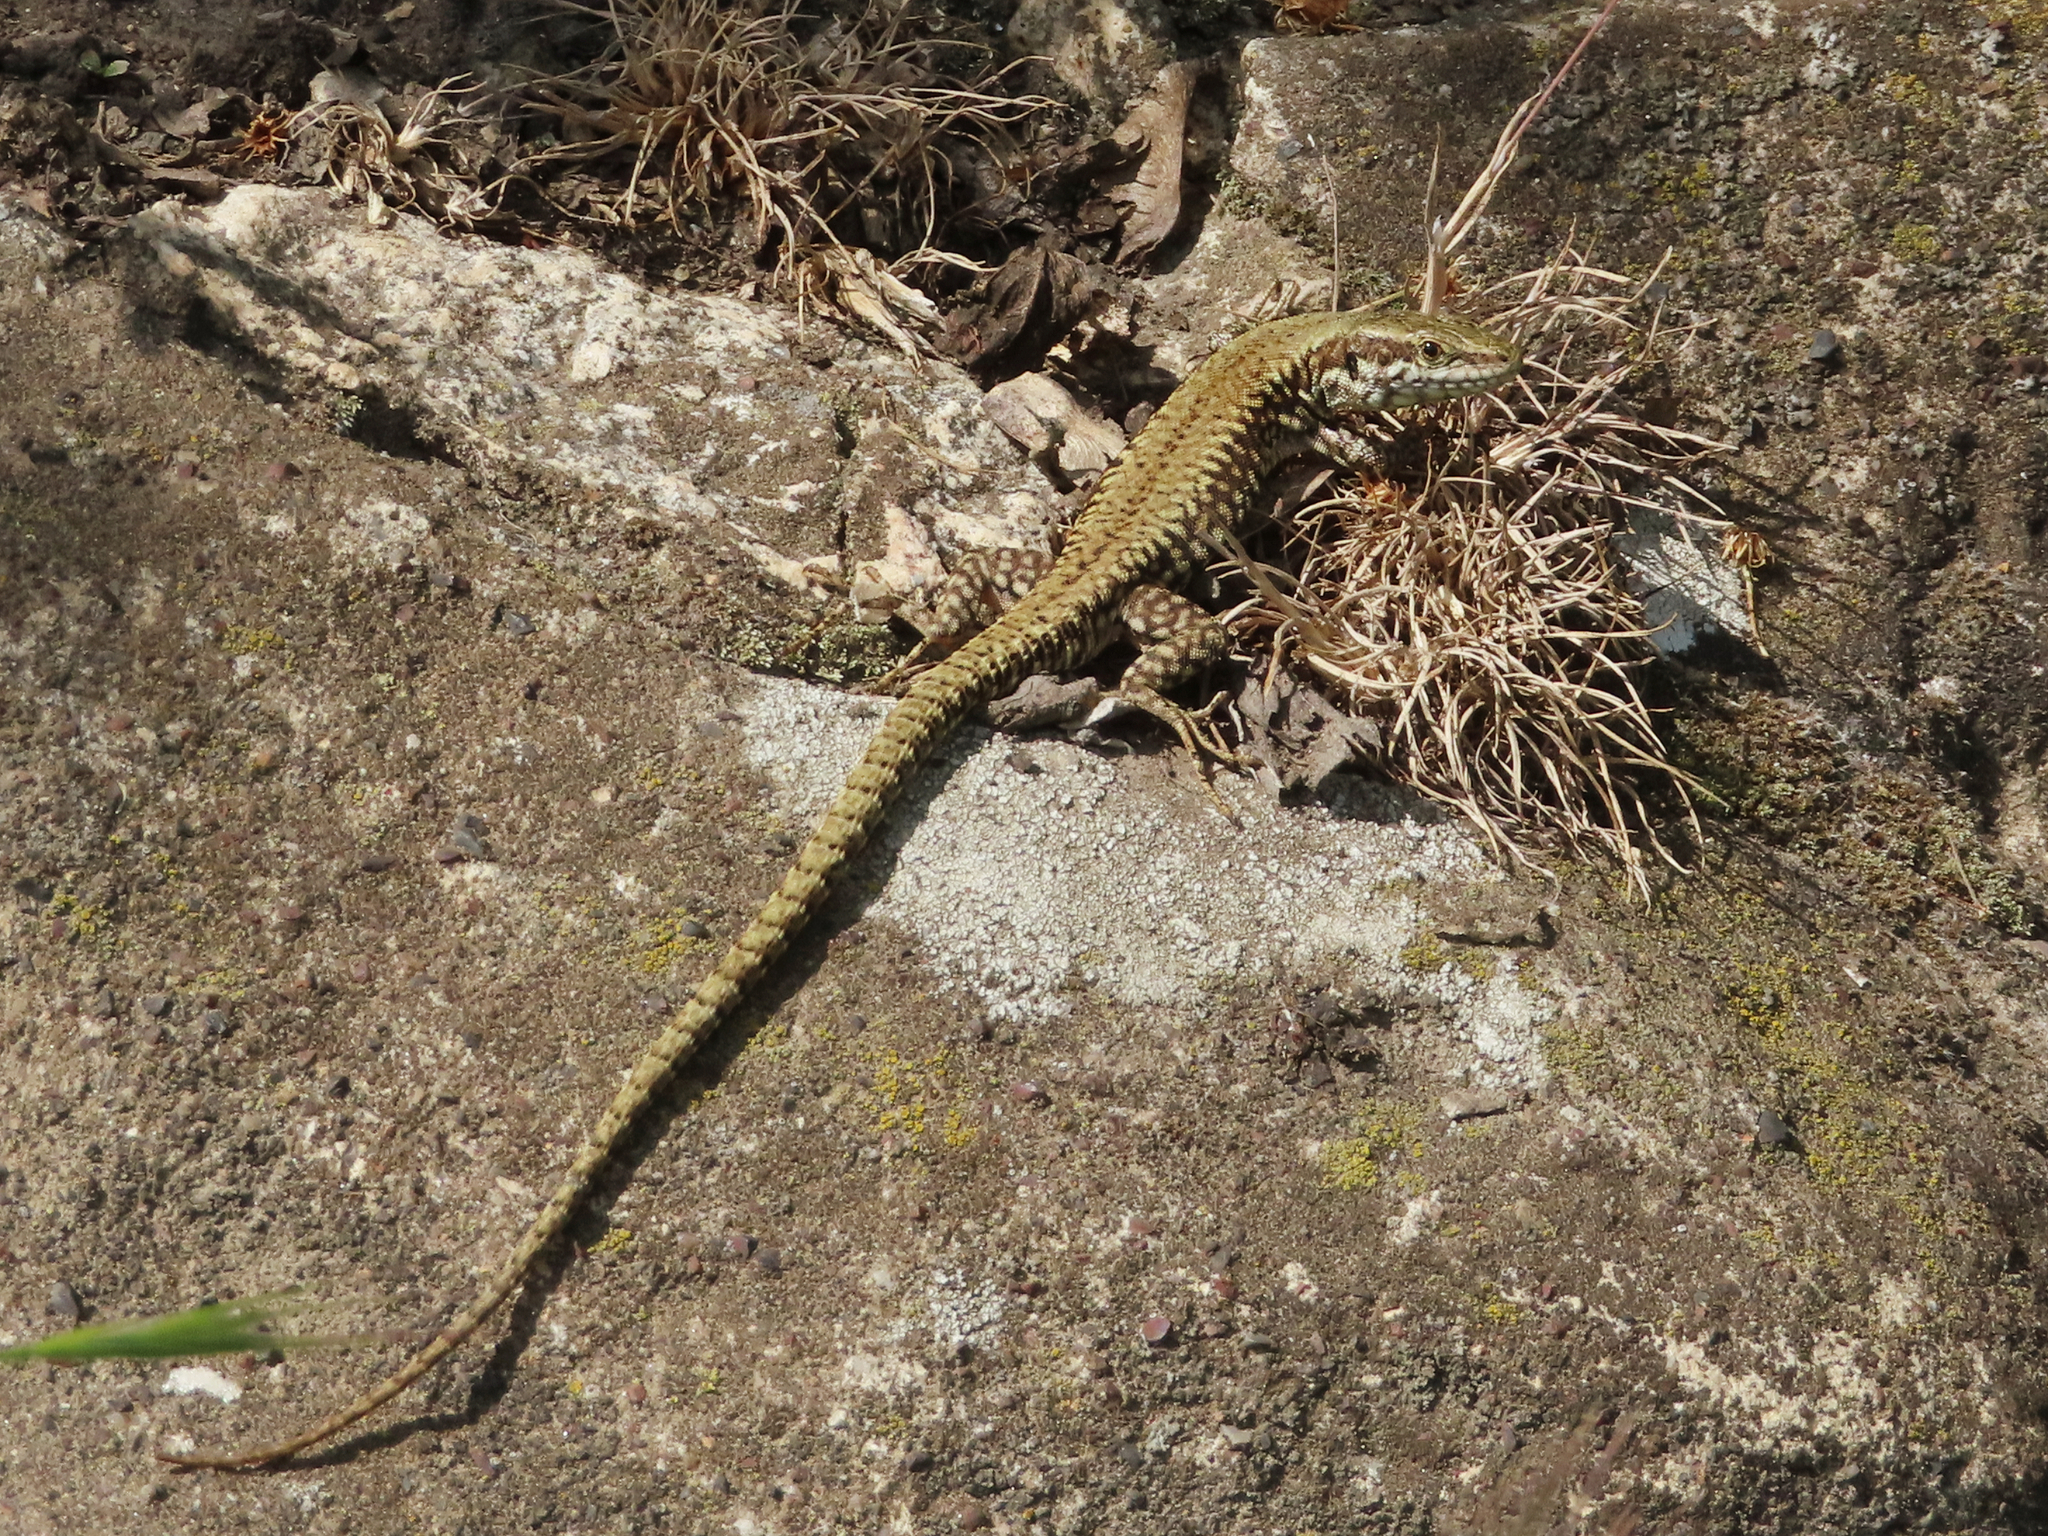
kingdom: Animalia
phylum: Chordata
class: Squamata
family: Lacertidae
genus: Podarcis
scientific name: Podarcis muralis
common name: Common wall lizard
